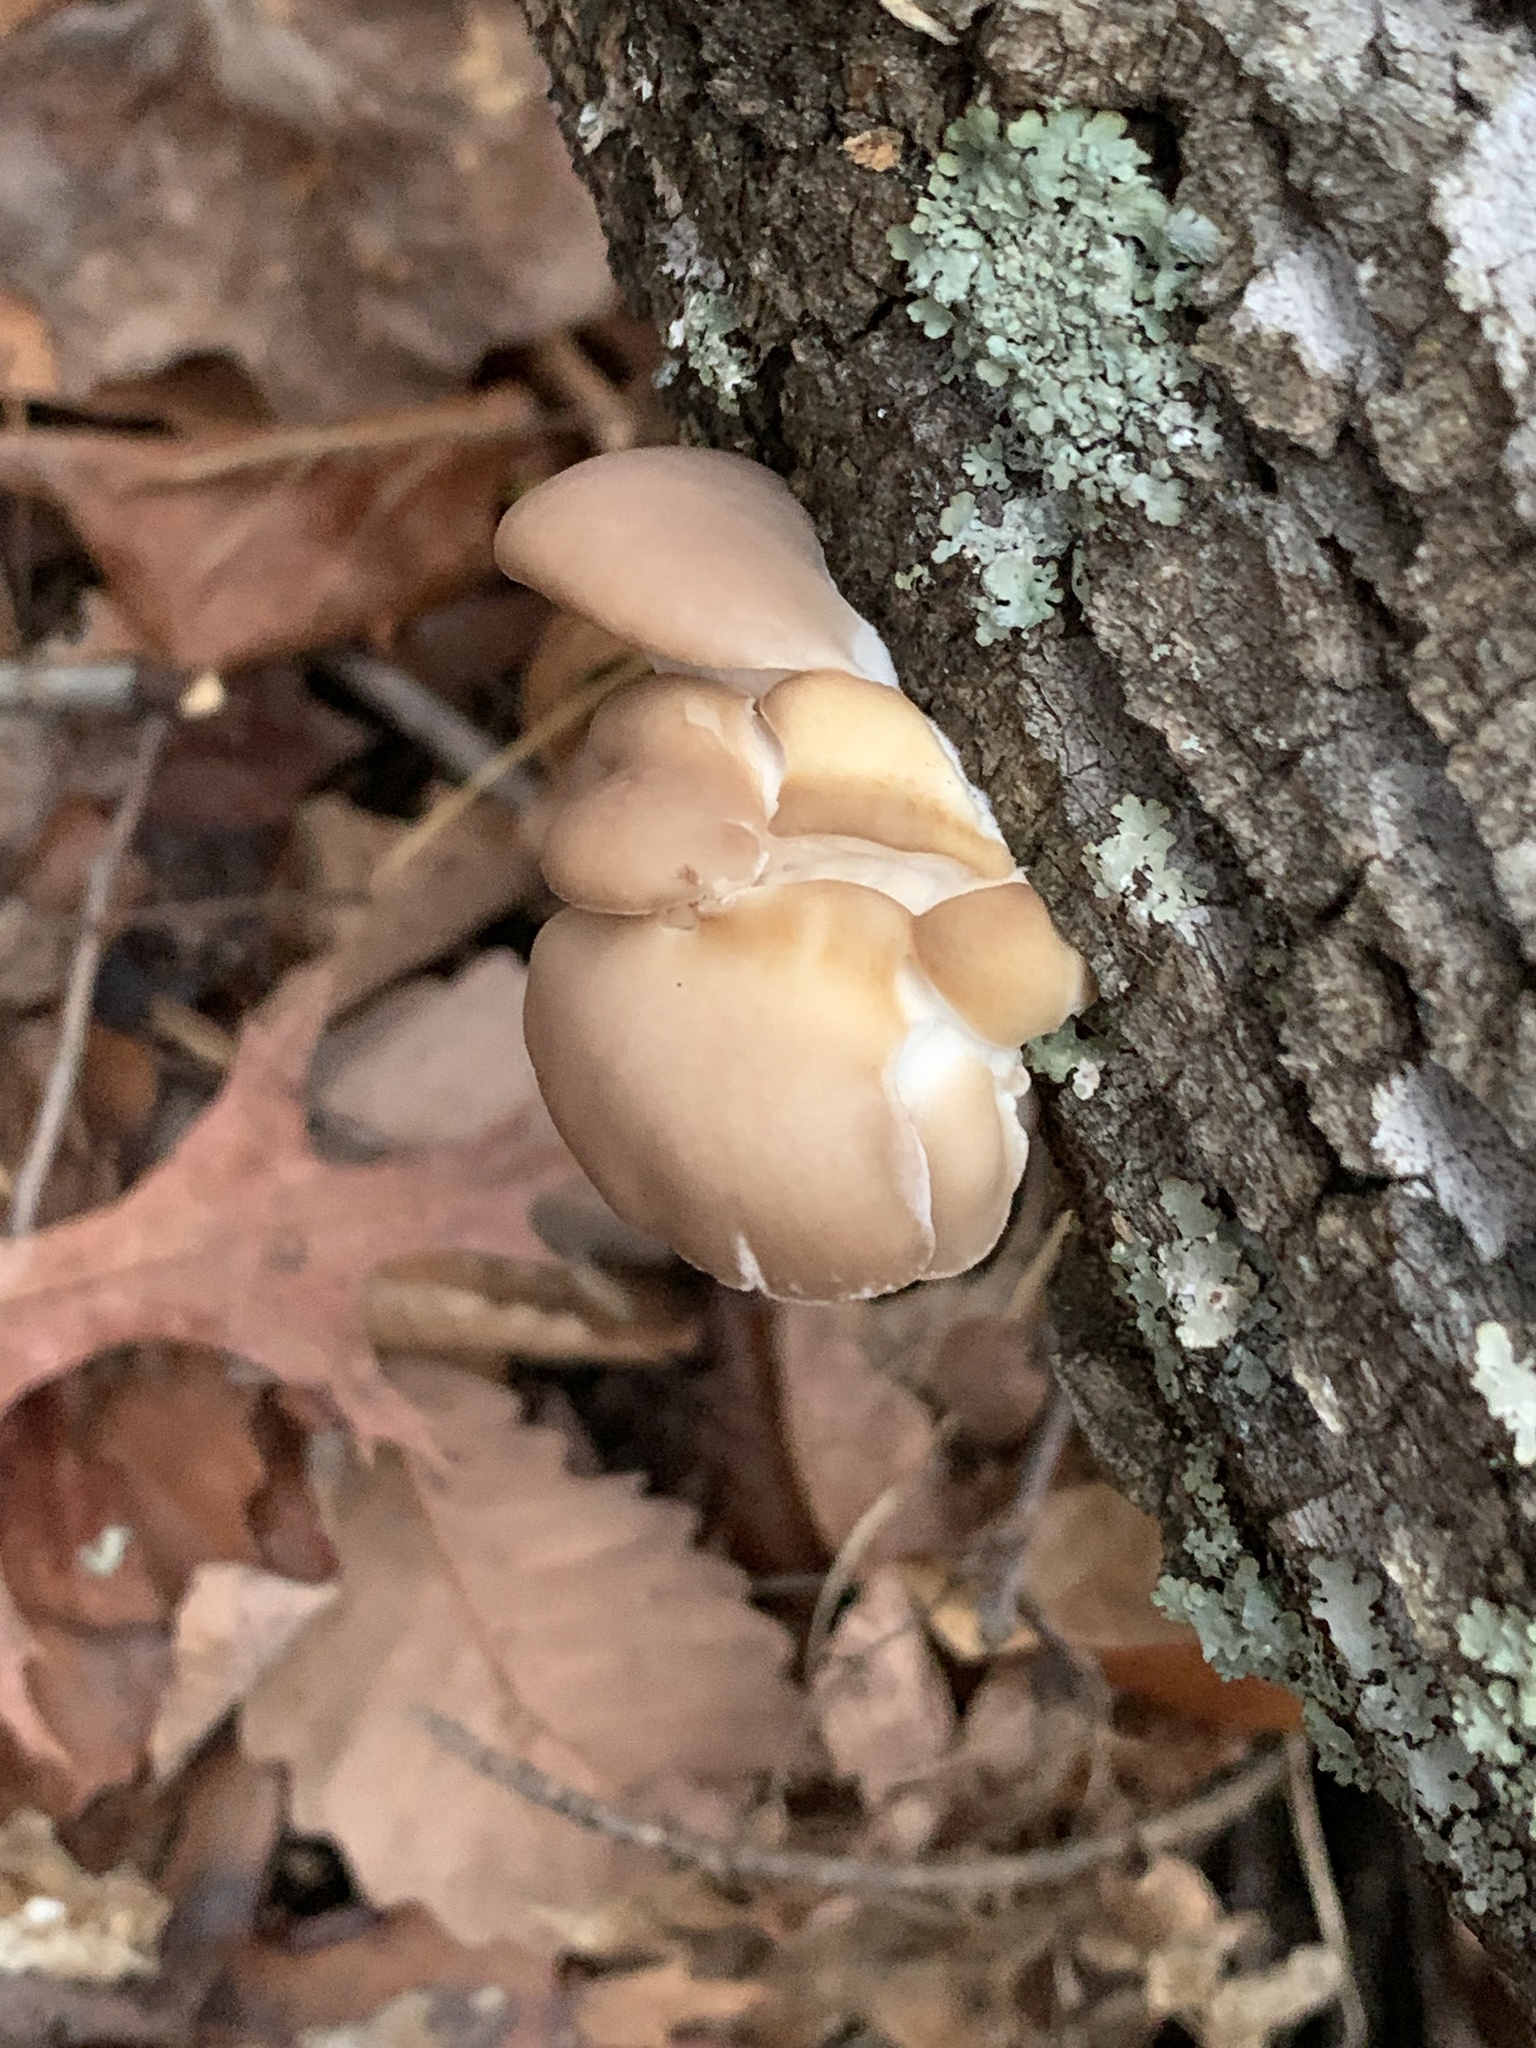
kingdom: Fungi
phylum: Basidiomycota
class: Agaricomycetes
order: Agaricales
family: Pleurotaceae
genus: Pleurotus
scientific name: Pleurotus ostreatus
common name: Oyster mushroom
